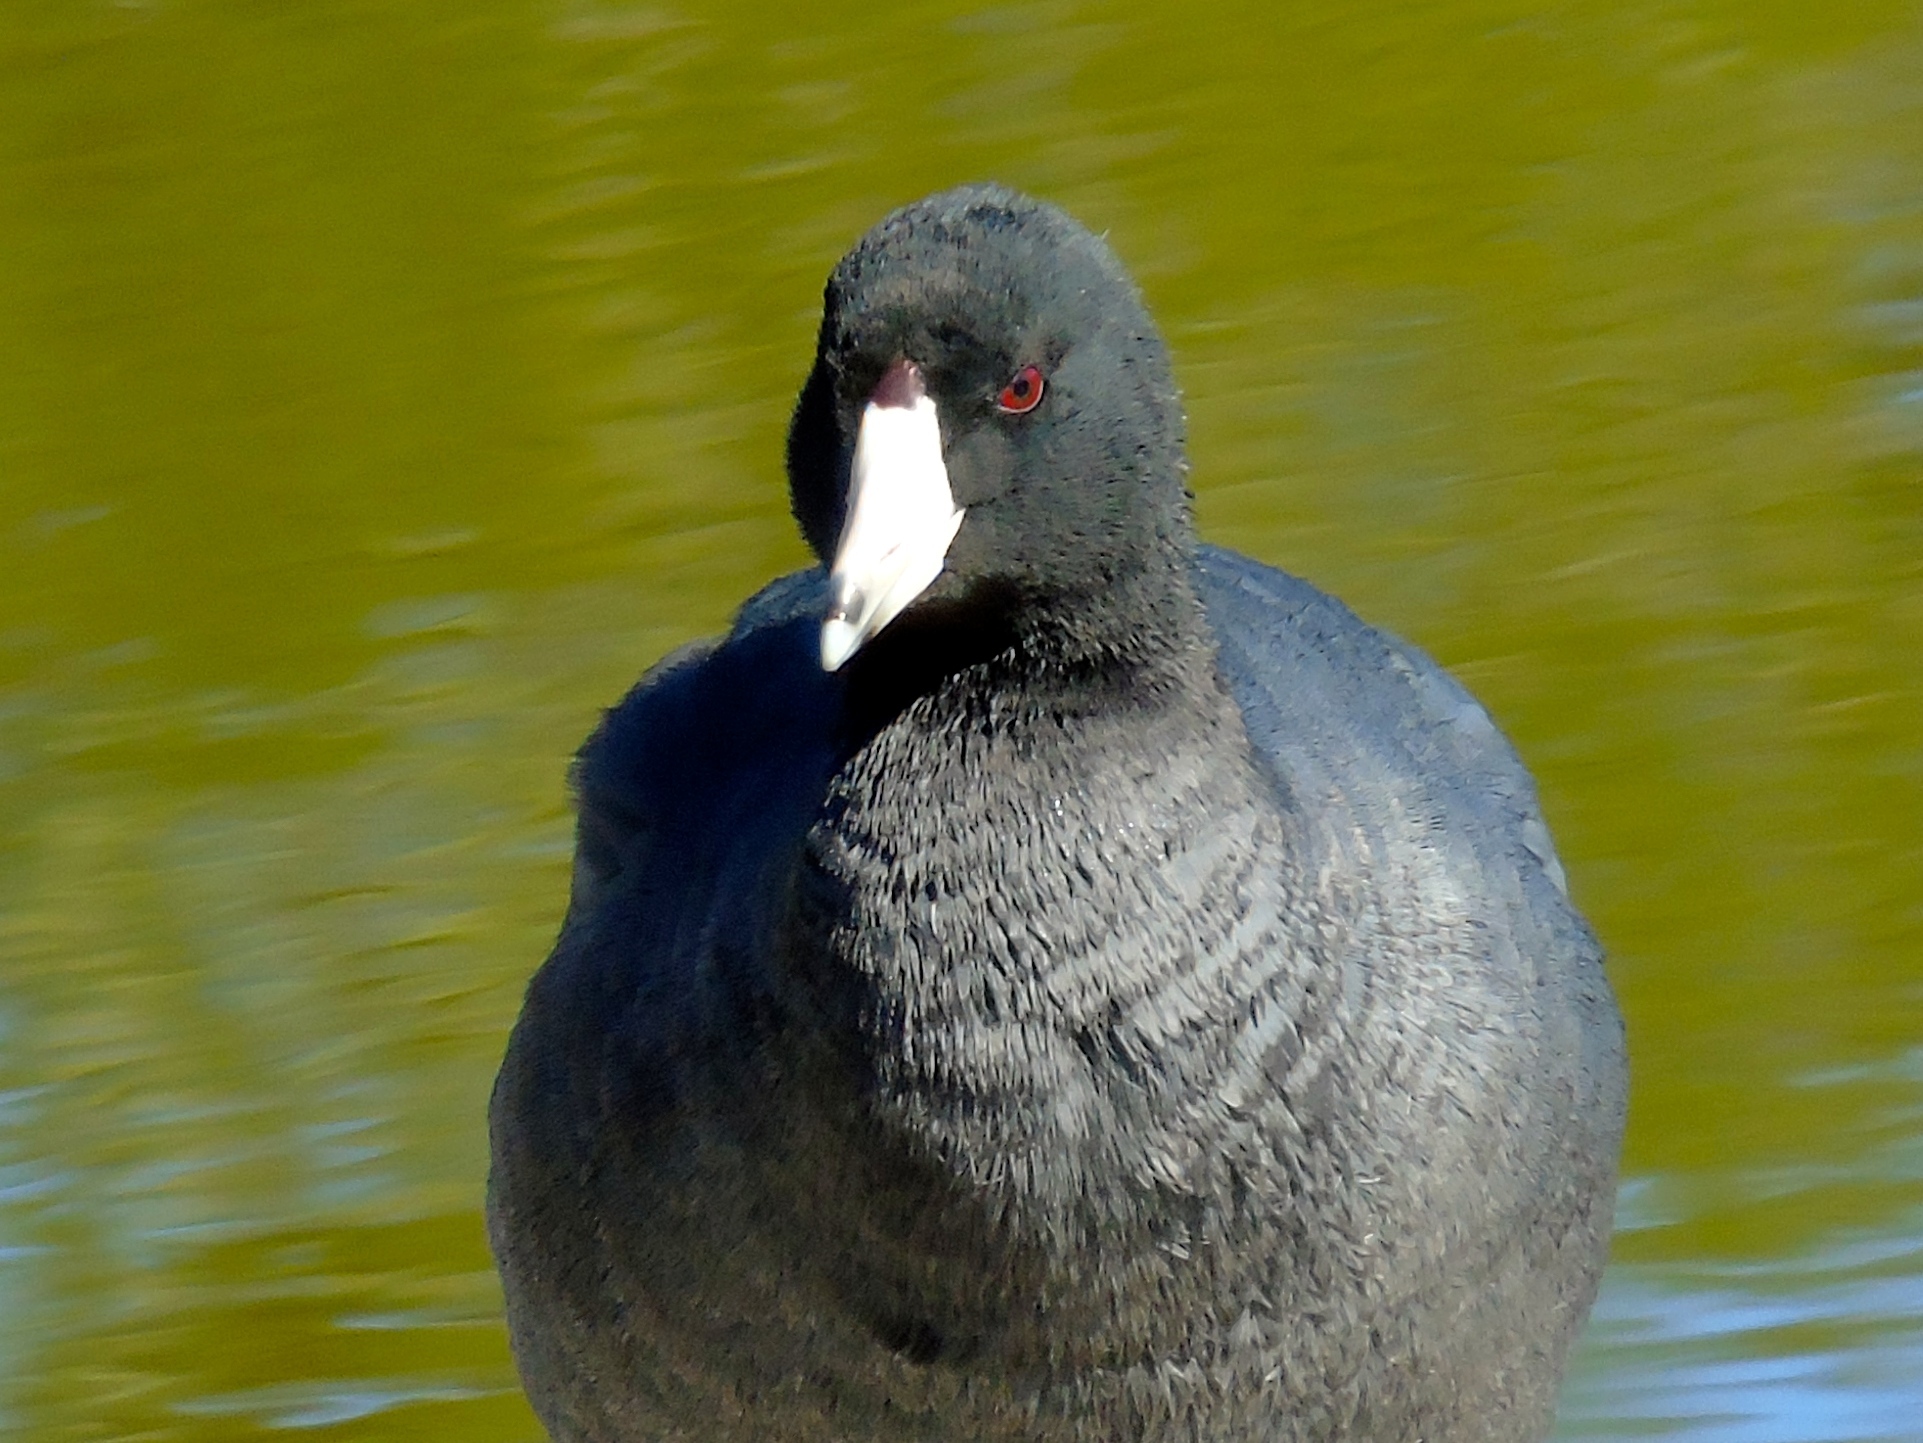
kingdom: Animalia
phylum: Chordata
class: Aves
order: Gruiformes
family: Rallidae
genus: Fulica
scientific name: Fulica americana
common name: American coot
